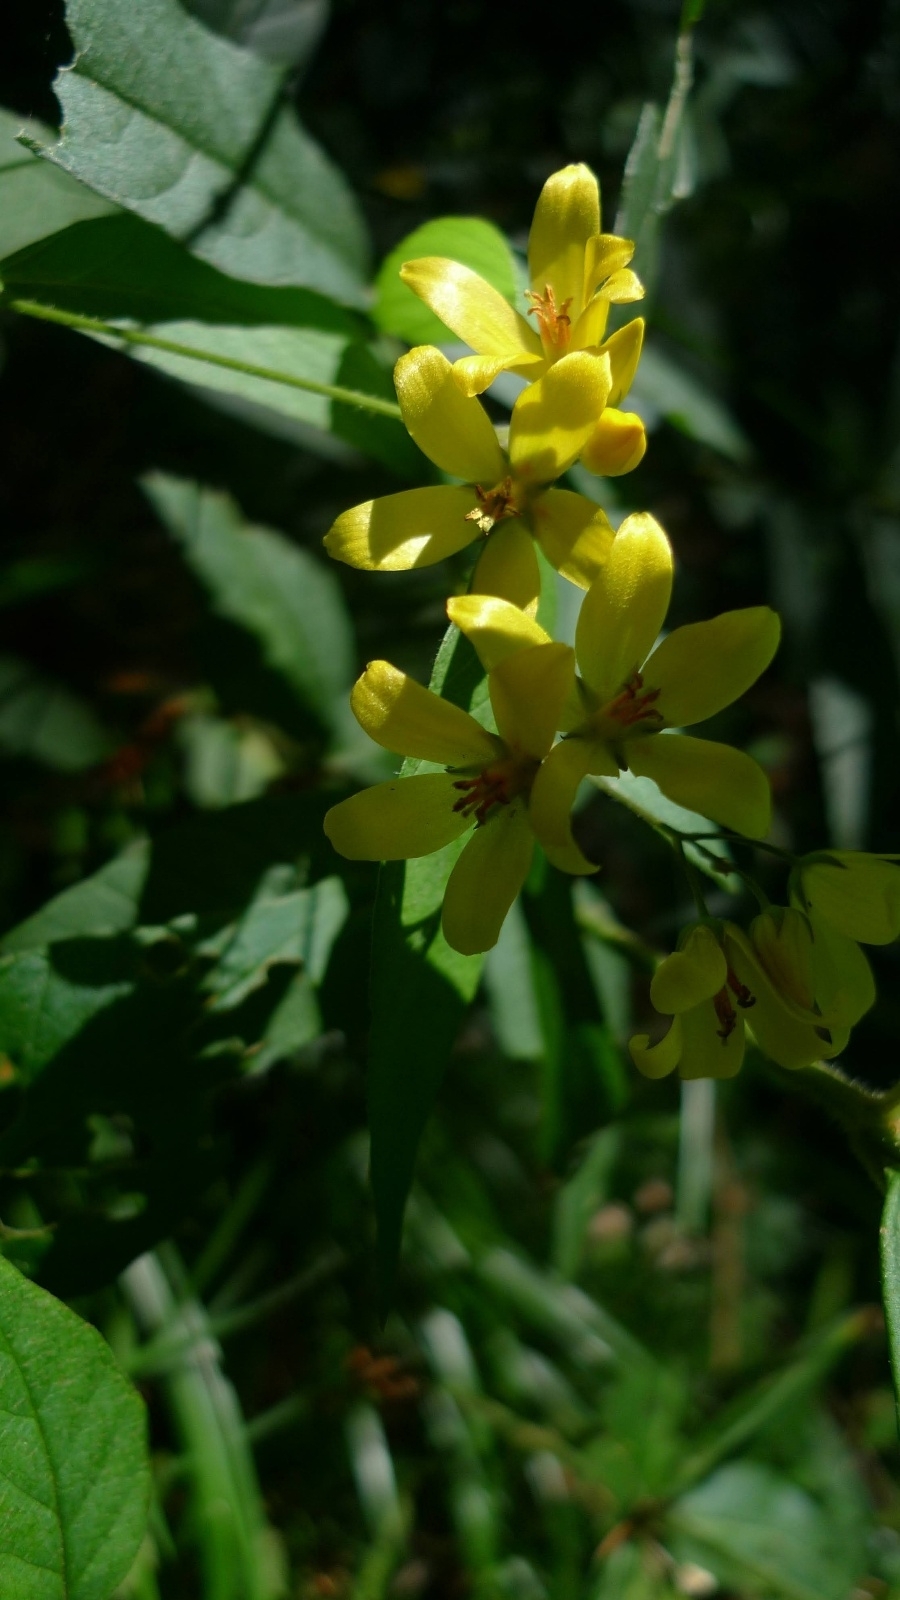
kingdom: Plantae
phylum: Tracheophyta
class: Magnoliopsida
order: Ericales
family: Primulaceae
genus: Lysimachia
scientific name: Lysimachia vulgaris
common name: Yellow loosestrife
